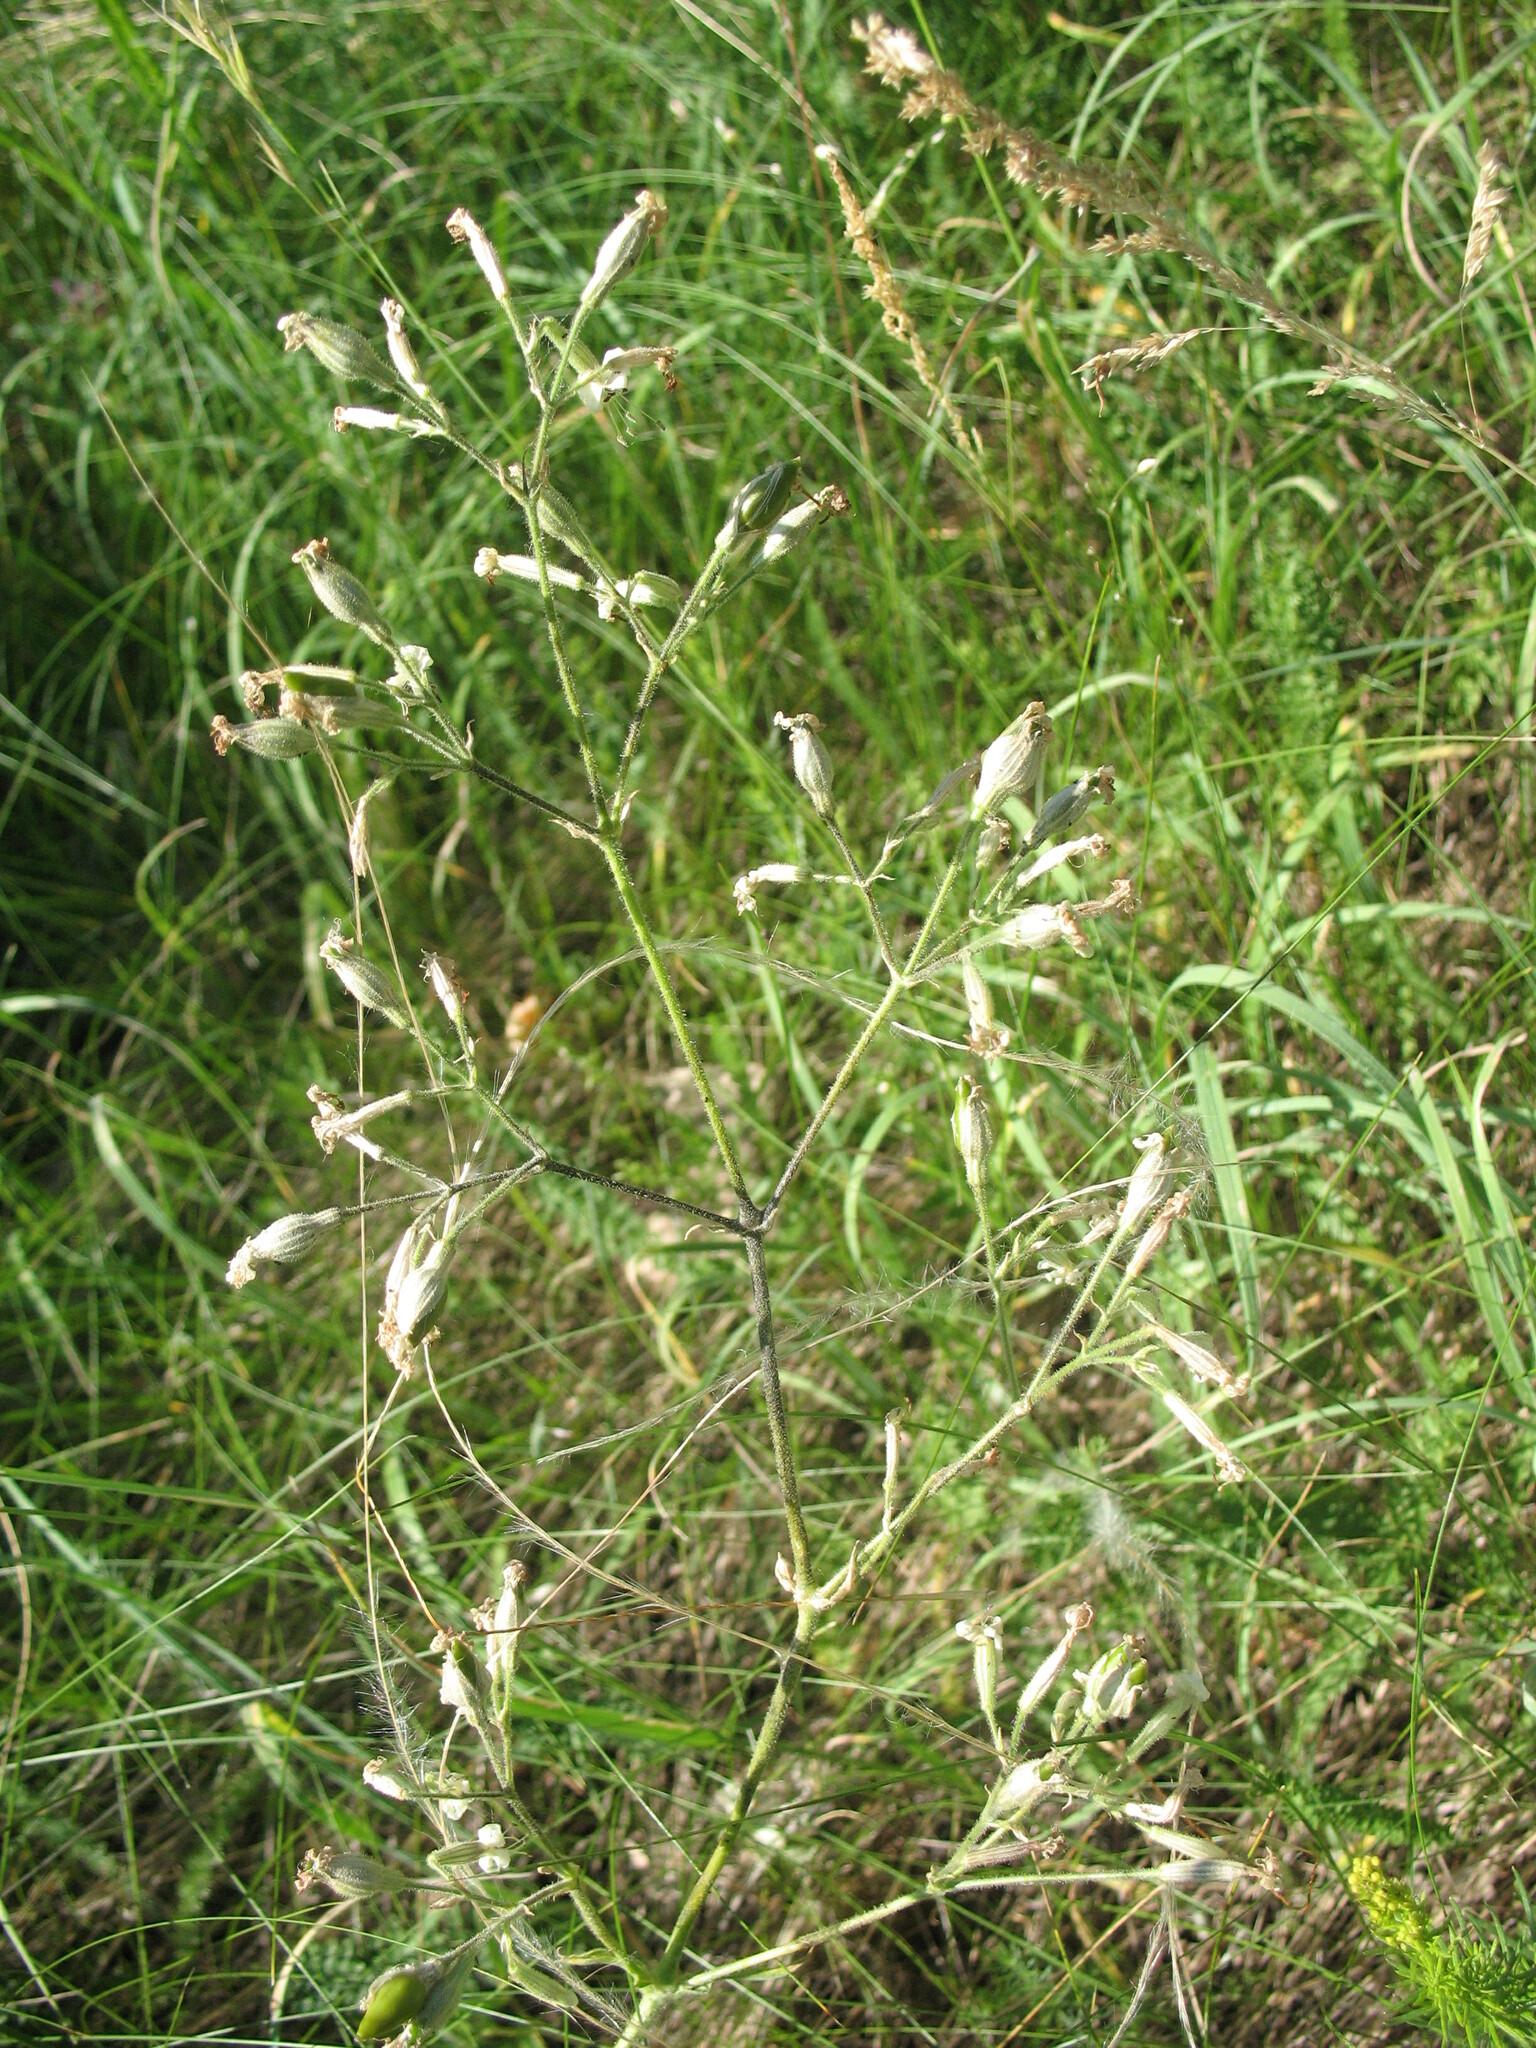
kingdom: Plantae
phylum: Tracheophyta
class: Magnoliopsida
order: Caryophyllales
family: Caryophyllaceae
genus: Silene
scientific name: Silene nutans
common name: Nottingham catchfly
